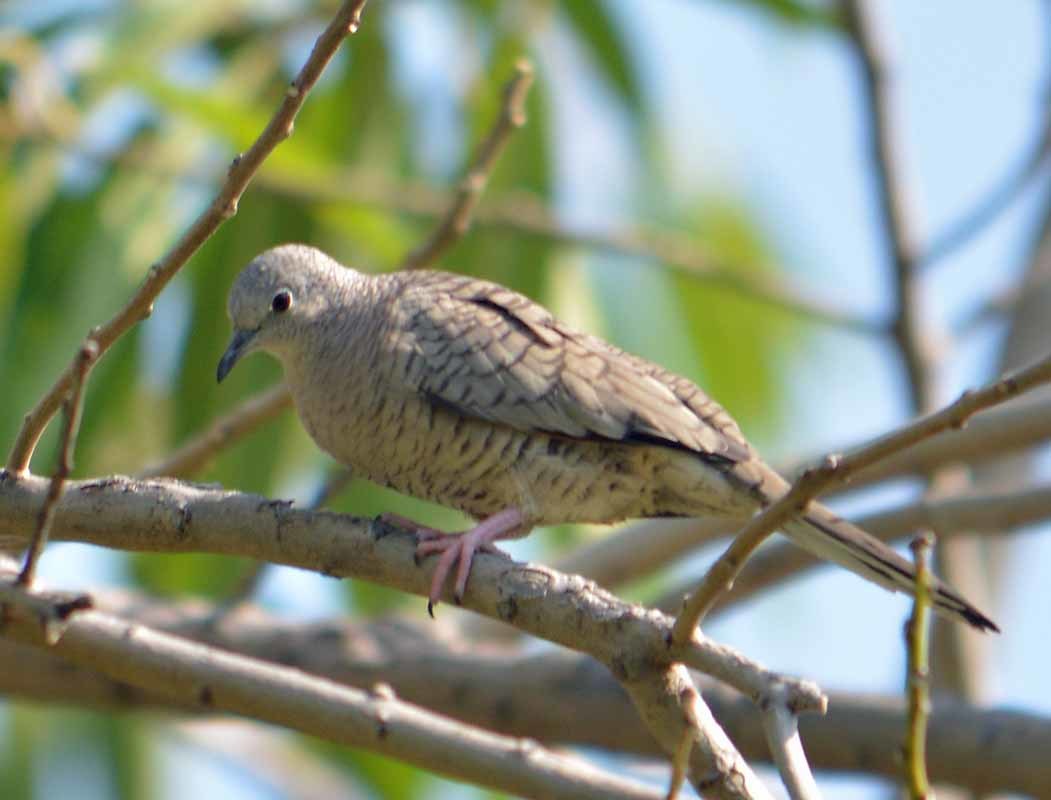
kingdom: Animalia
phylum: Chordata
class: Aves
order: Columbiformes
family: Columbidae
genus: Columbina
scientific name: Columbina inca
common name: Inca dove
